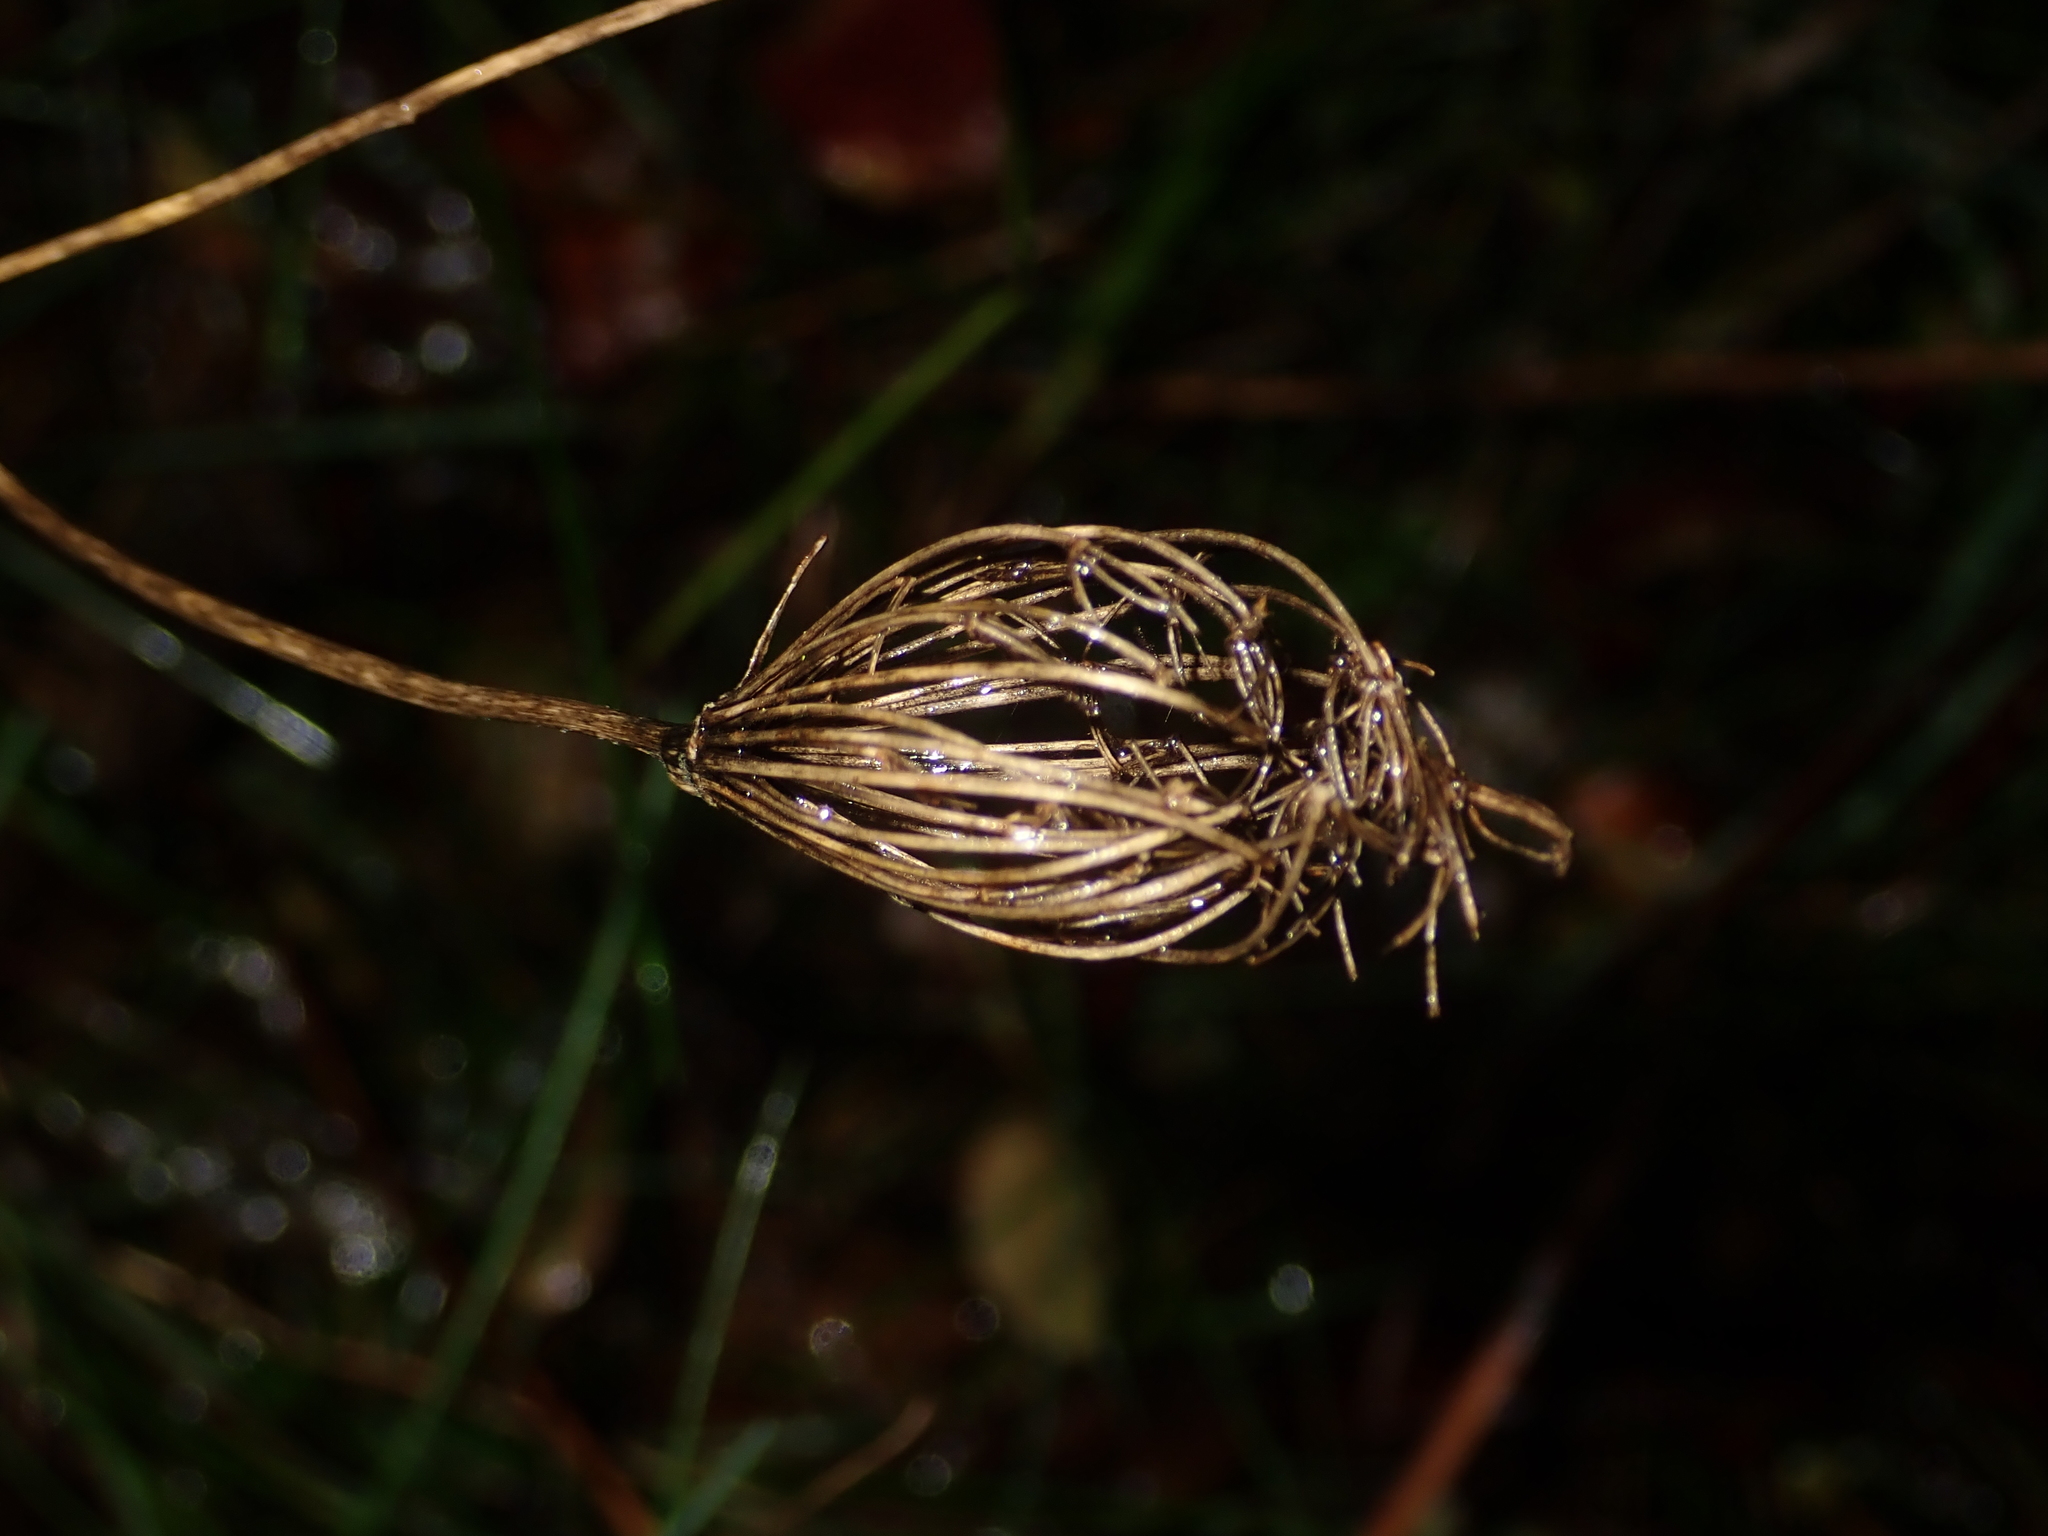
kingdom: Plantae
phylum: Tracheophyta
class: Magnoliopsida
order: Apiales
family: Apiaceae
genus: Daucus
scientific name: Daucus carota
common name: Wild carrot
